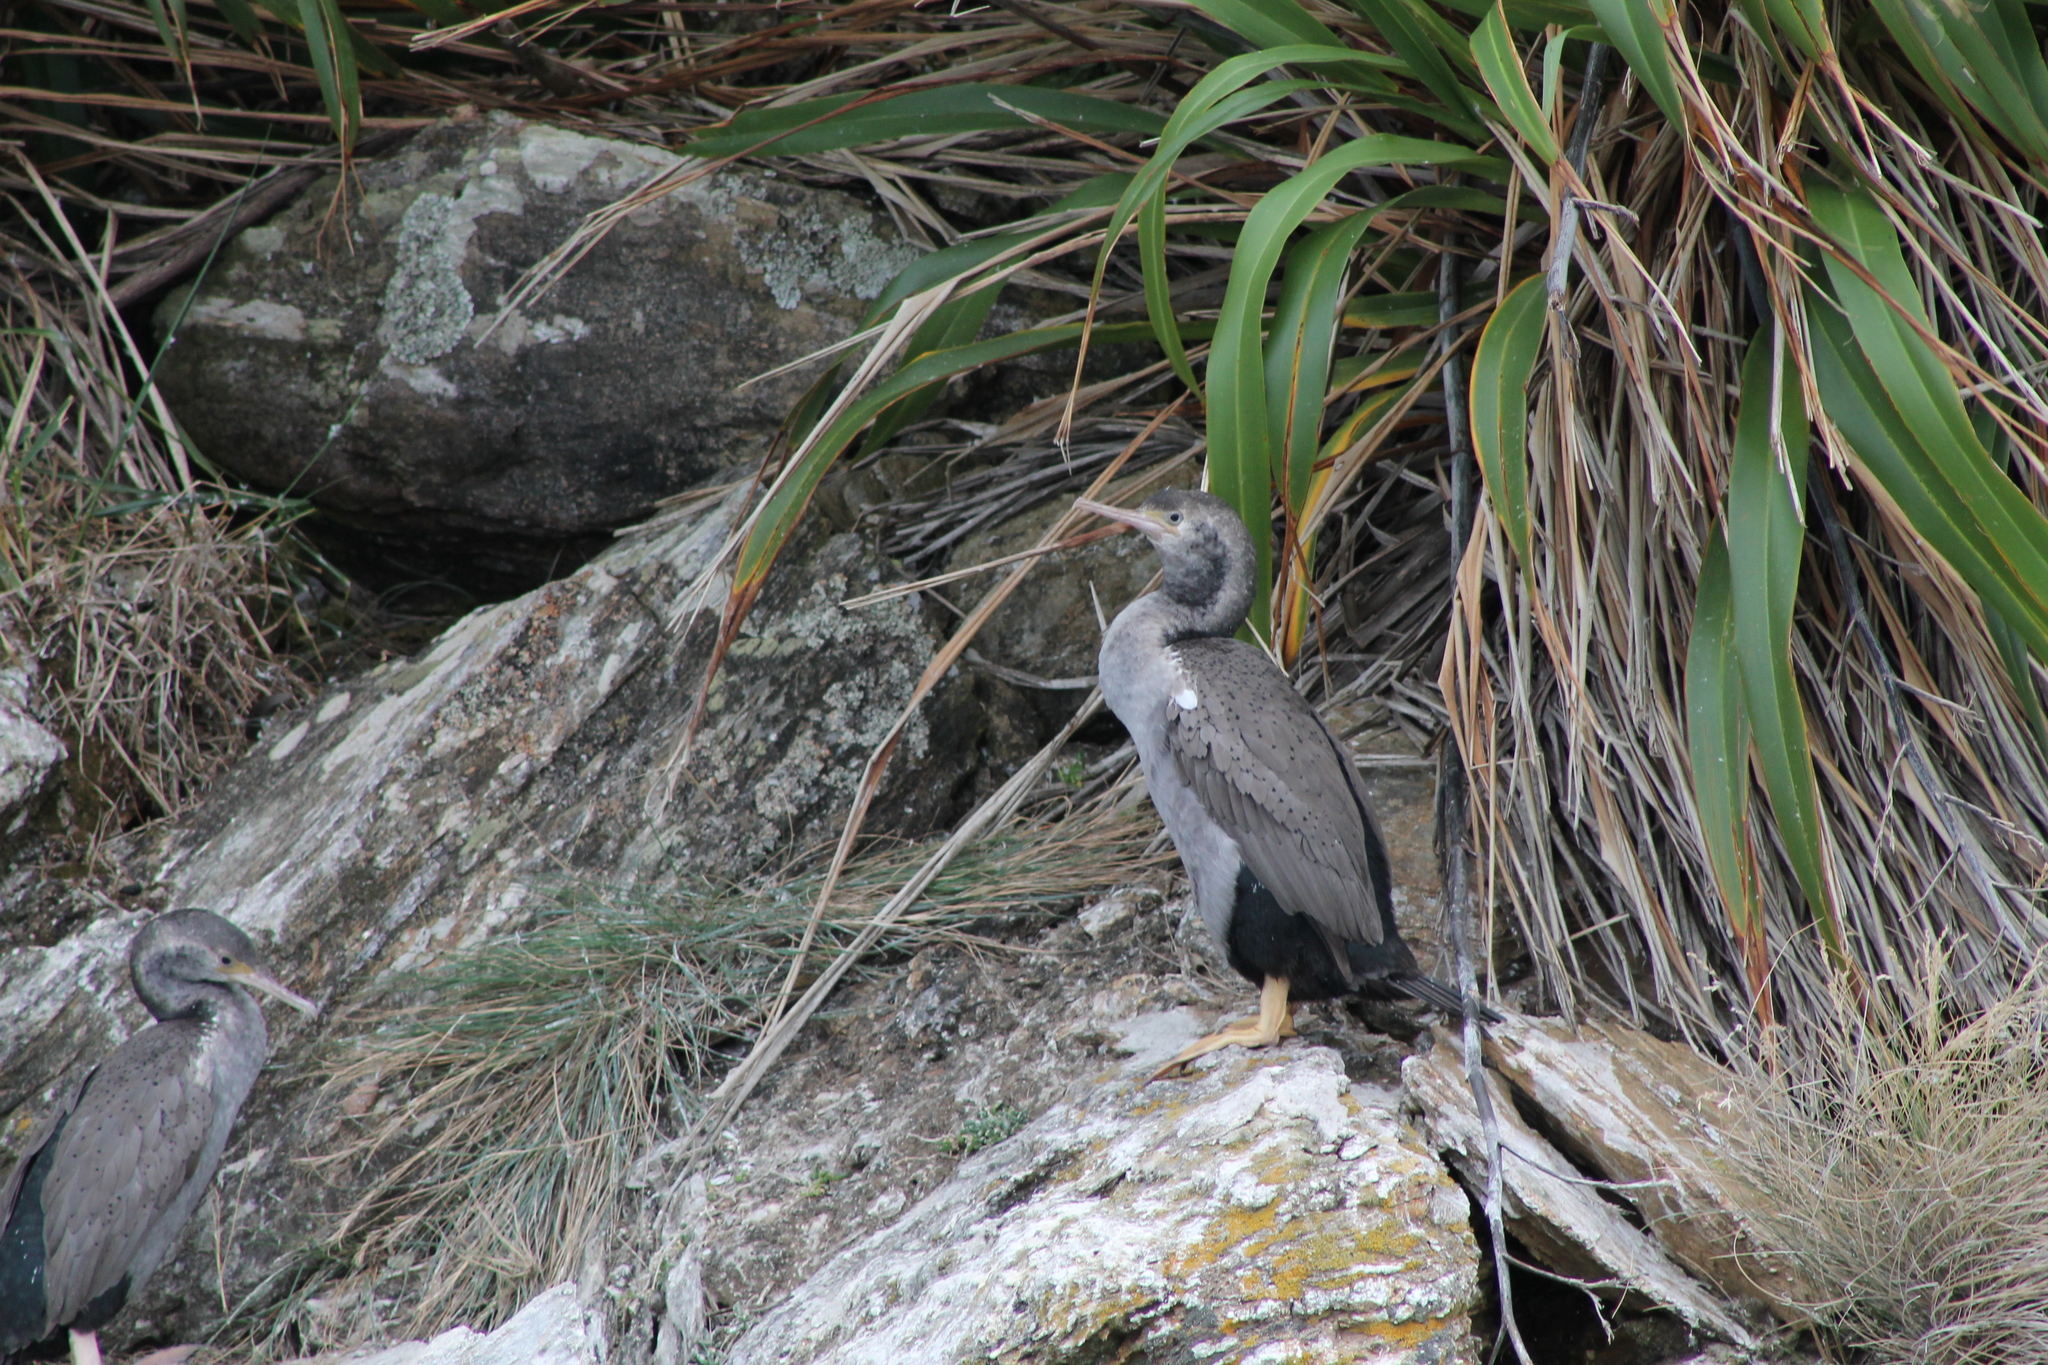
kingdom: Animalia
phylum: Chordata
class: Aves
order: Suliformes
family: Phalacrocoracidae
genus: Phalacrocorax
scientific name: Phalacrocorax punctatus
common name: Spotted shag
